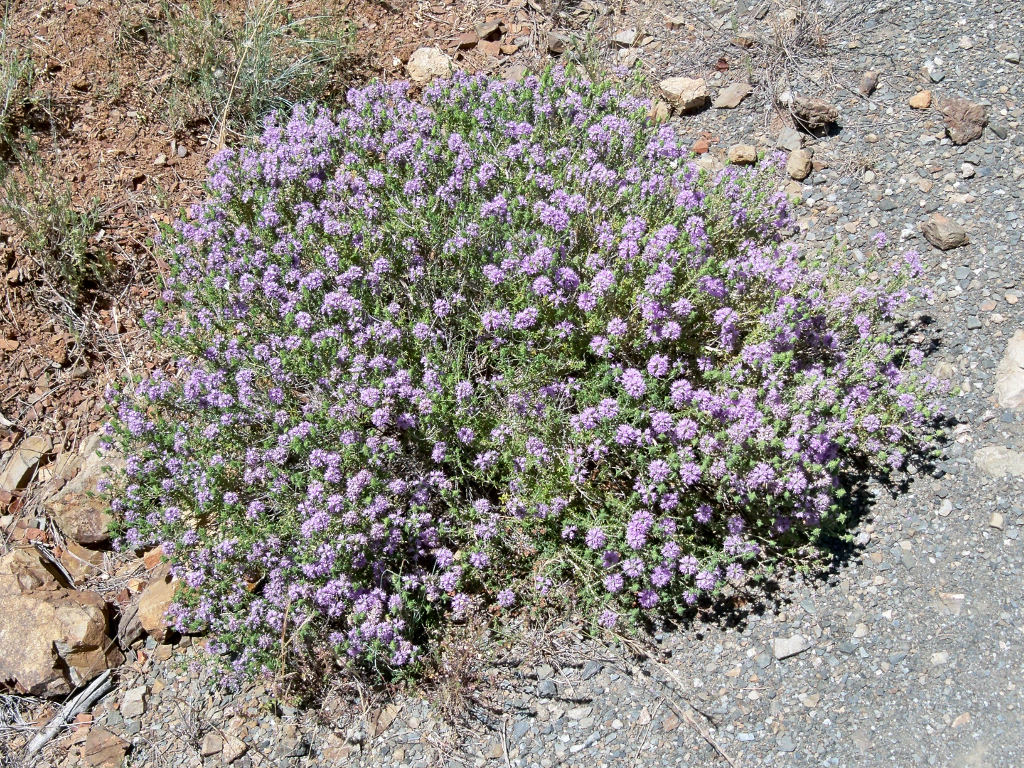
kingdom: Plantae
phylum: Tracheophyta
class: Magnoliopsida
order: Lamiales
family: Lamiaceae
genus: Thymbra
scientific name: Thymbra capitata
